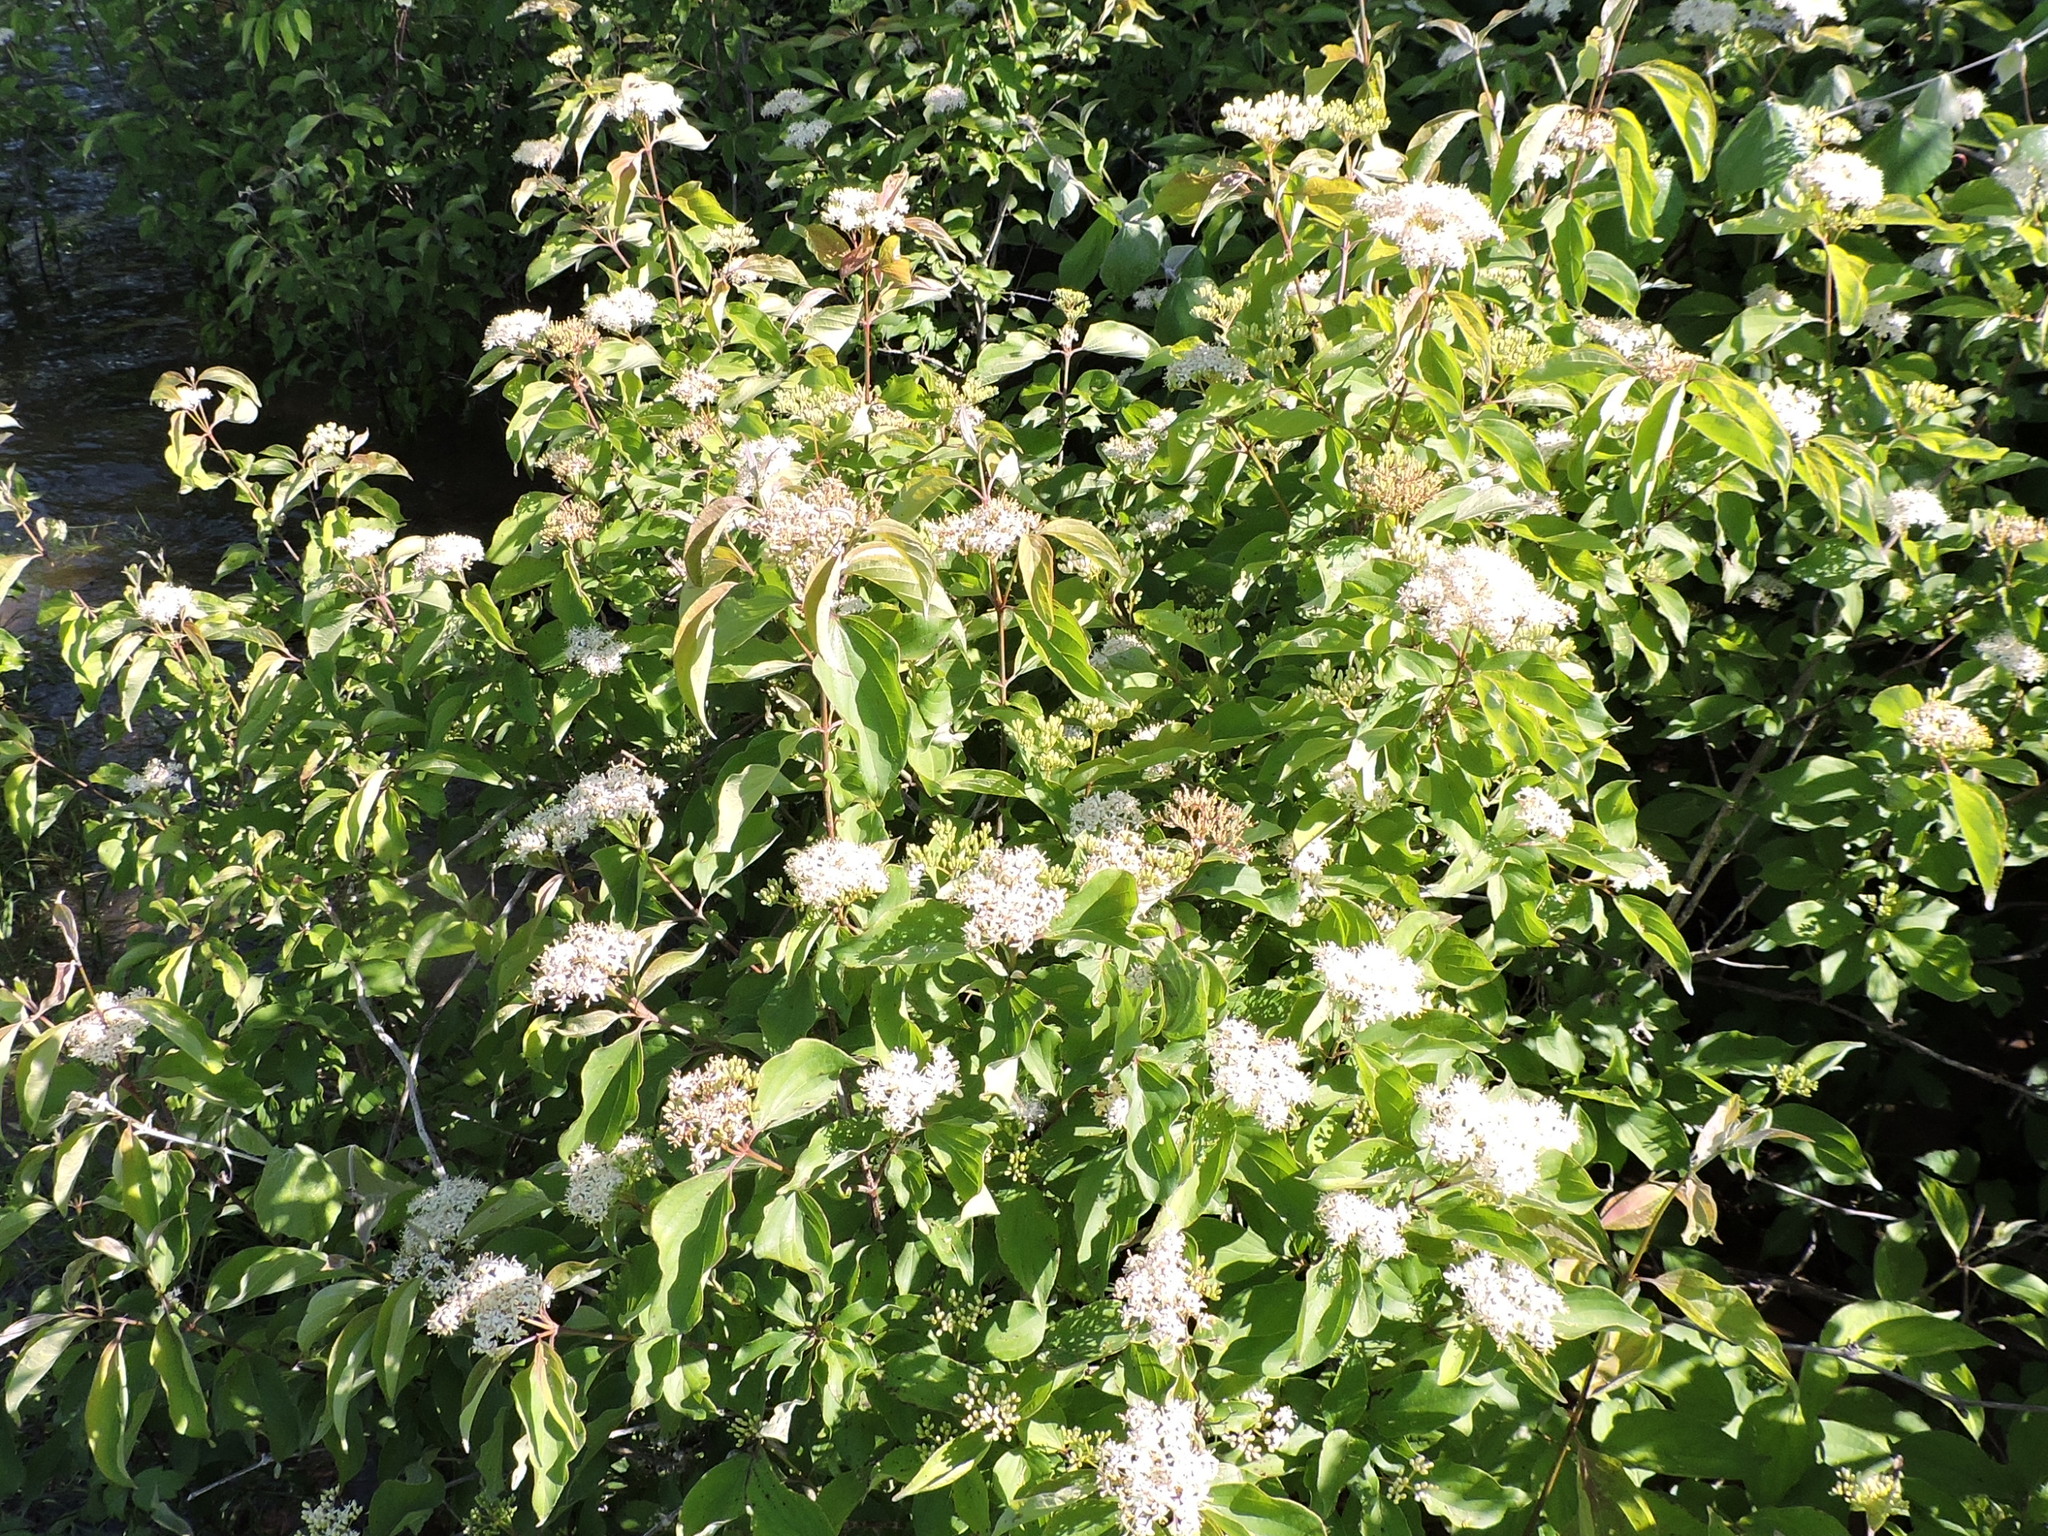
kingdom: Plantae
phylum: Tracheophyta
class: Magnoliopsida
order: Cornales
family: Cornaceae
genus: Cornus
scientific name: Cornus drummondii
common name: Rough-leaf dogwood
